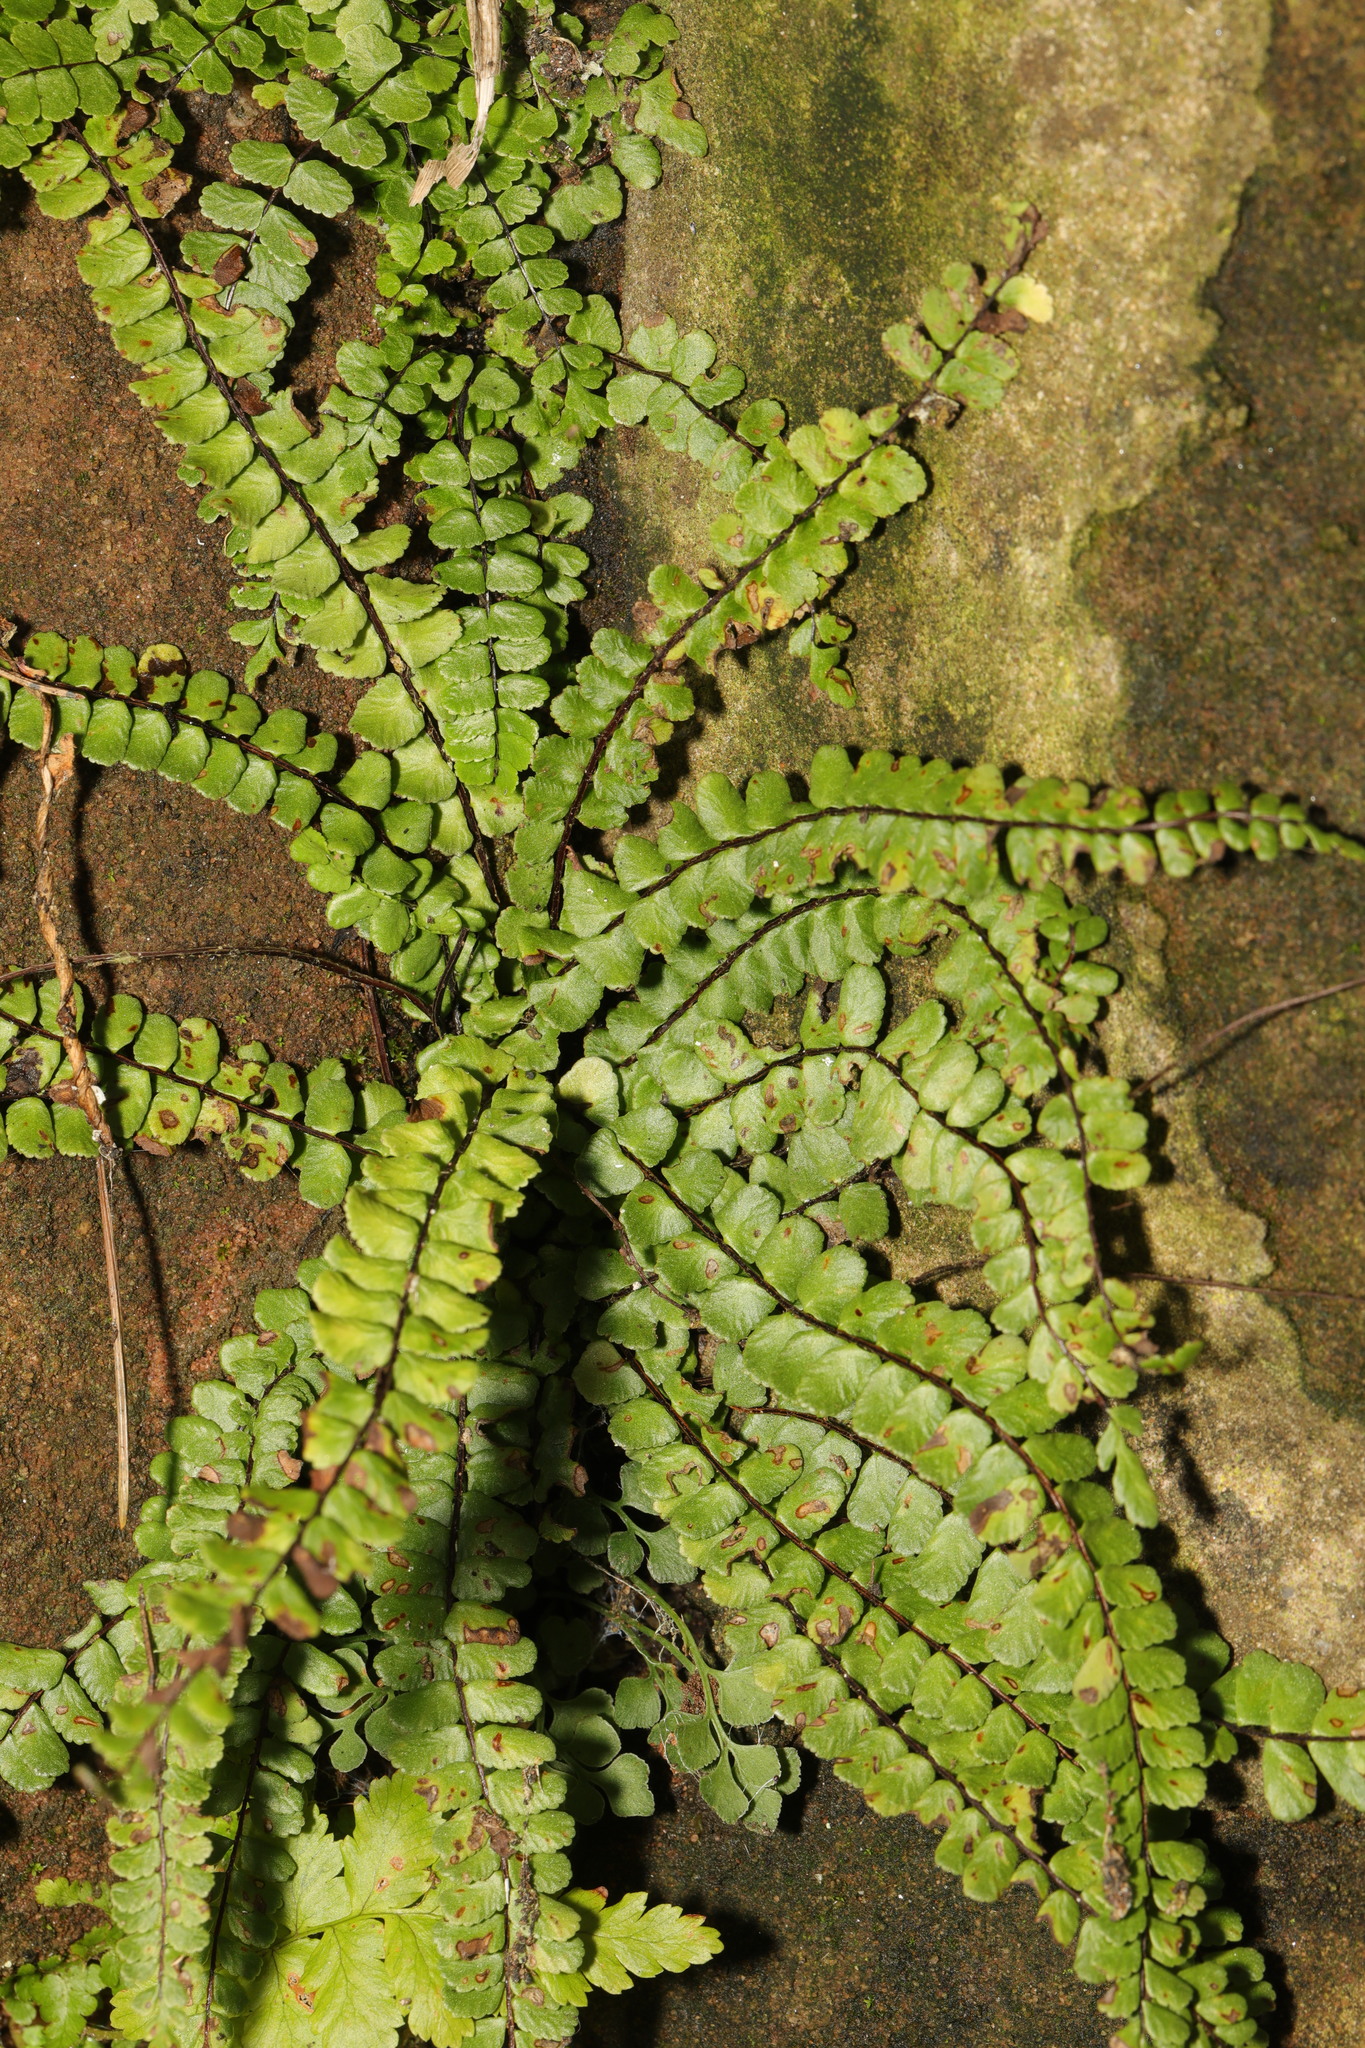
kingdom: Plantae
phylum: Tracheophyta
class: Polypodiopsida
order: Polypodiales
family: Aspleniaceae
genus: Asplenium
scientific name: Asplenium trichomanes
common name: Maidenhair spleenwort
